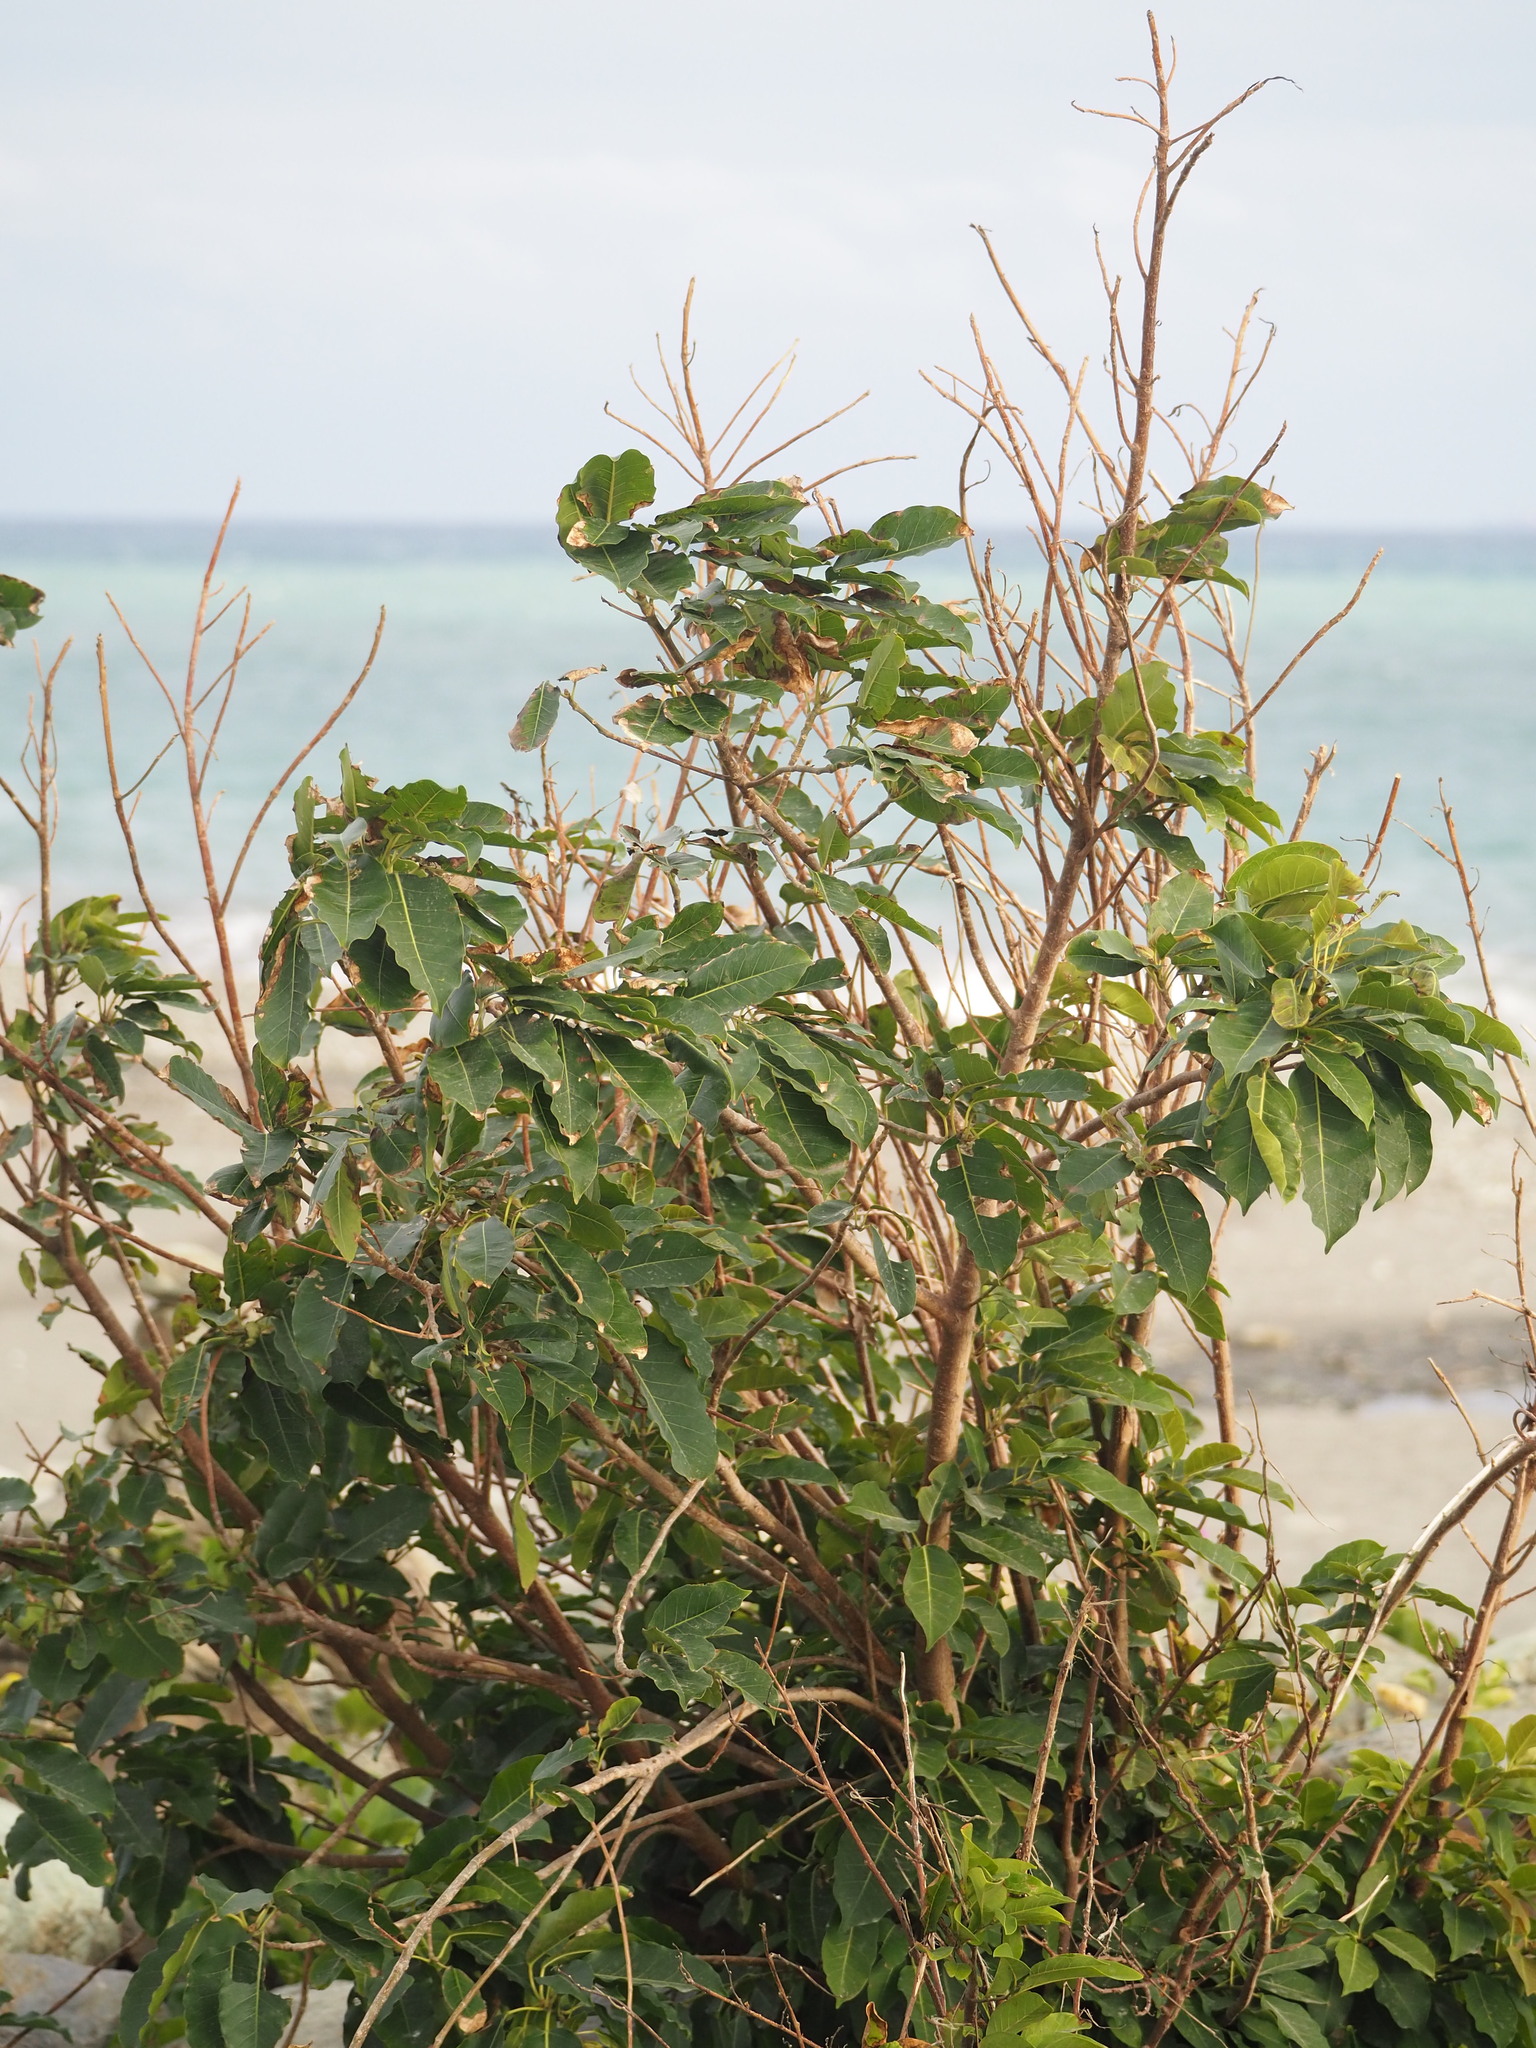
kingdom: Plantae
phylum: Tracheophyta
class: Magnoliopsida
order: Rosales
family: Moraceae
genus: Ficus
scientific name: Ficus subpisocarpa
